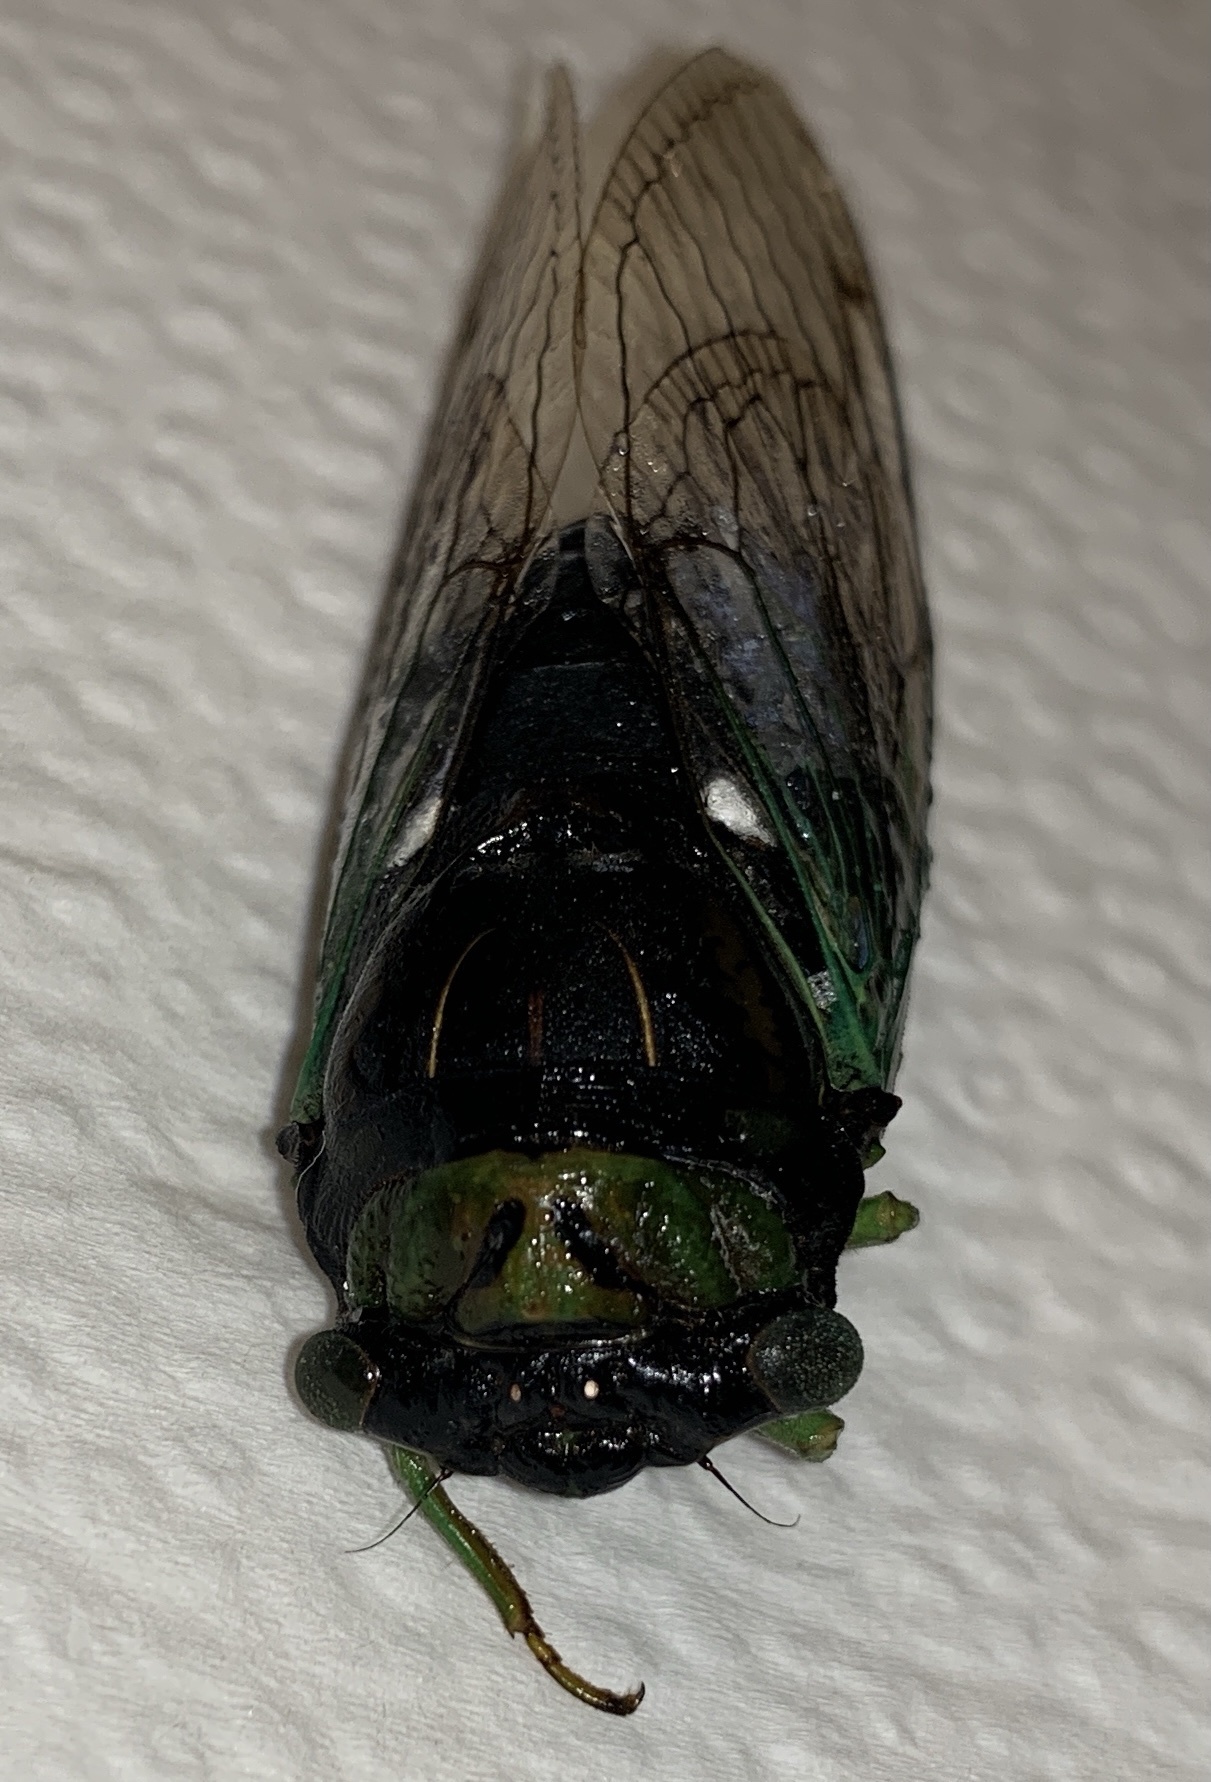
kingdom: Animalia
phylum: Arthropoda
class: Insecta
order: Hemiptera
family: Cicadidae
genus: Neotibicen
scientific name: Neotibicen tibicen
